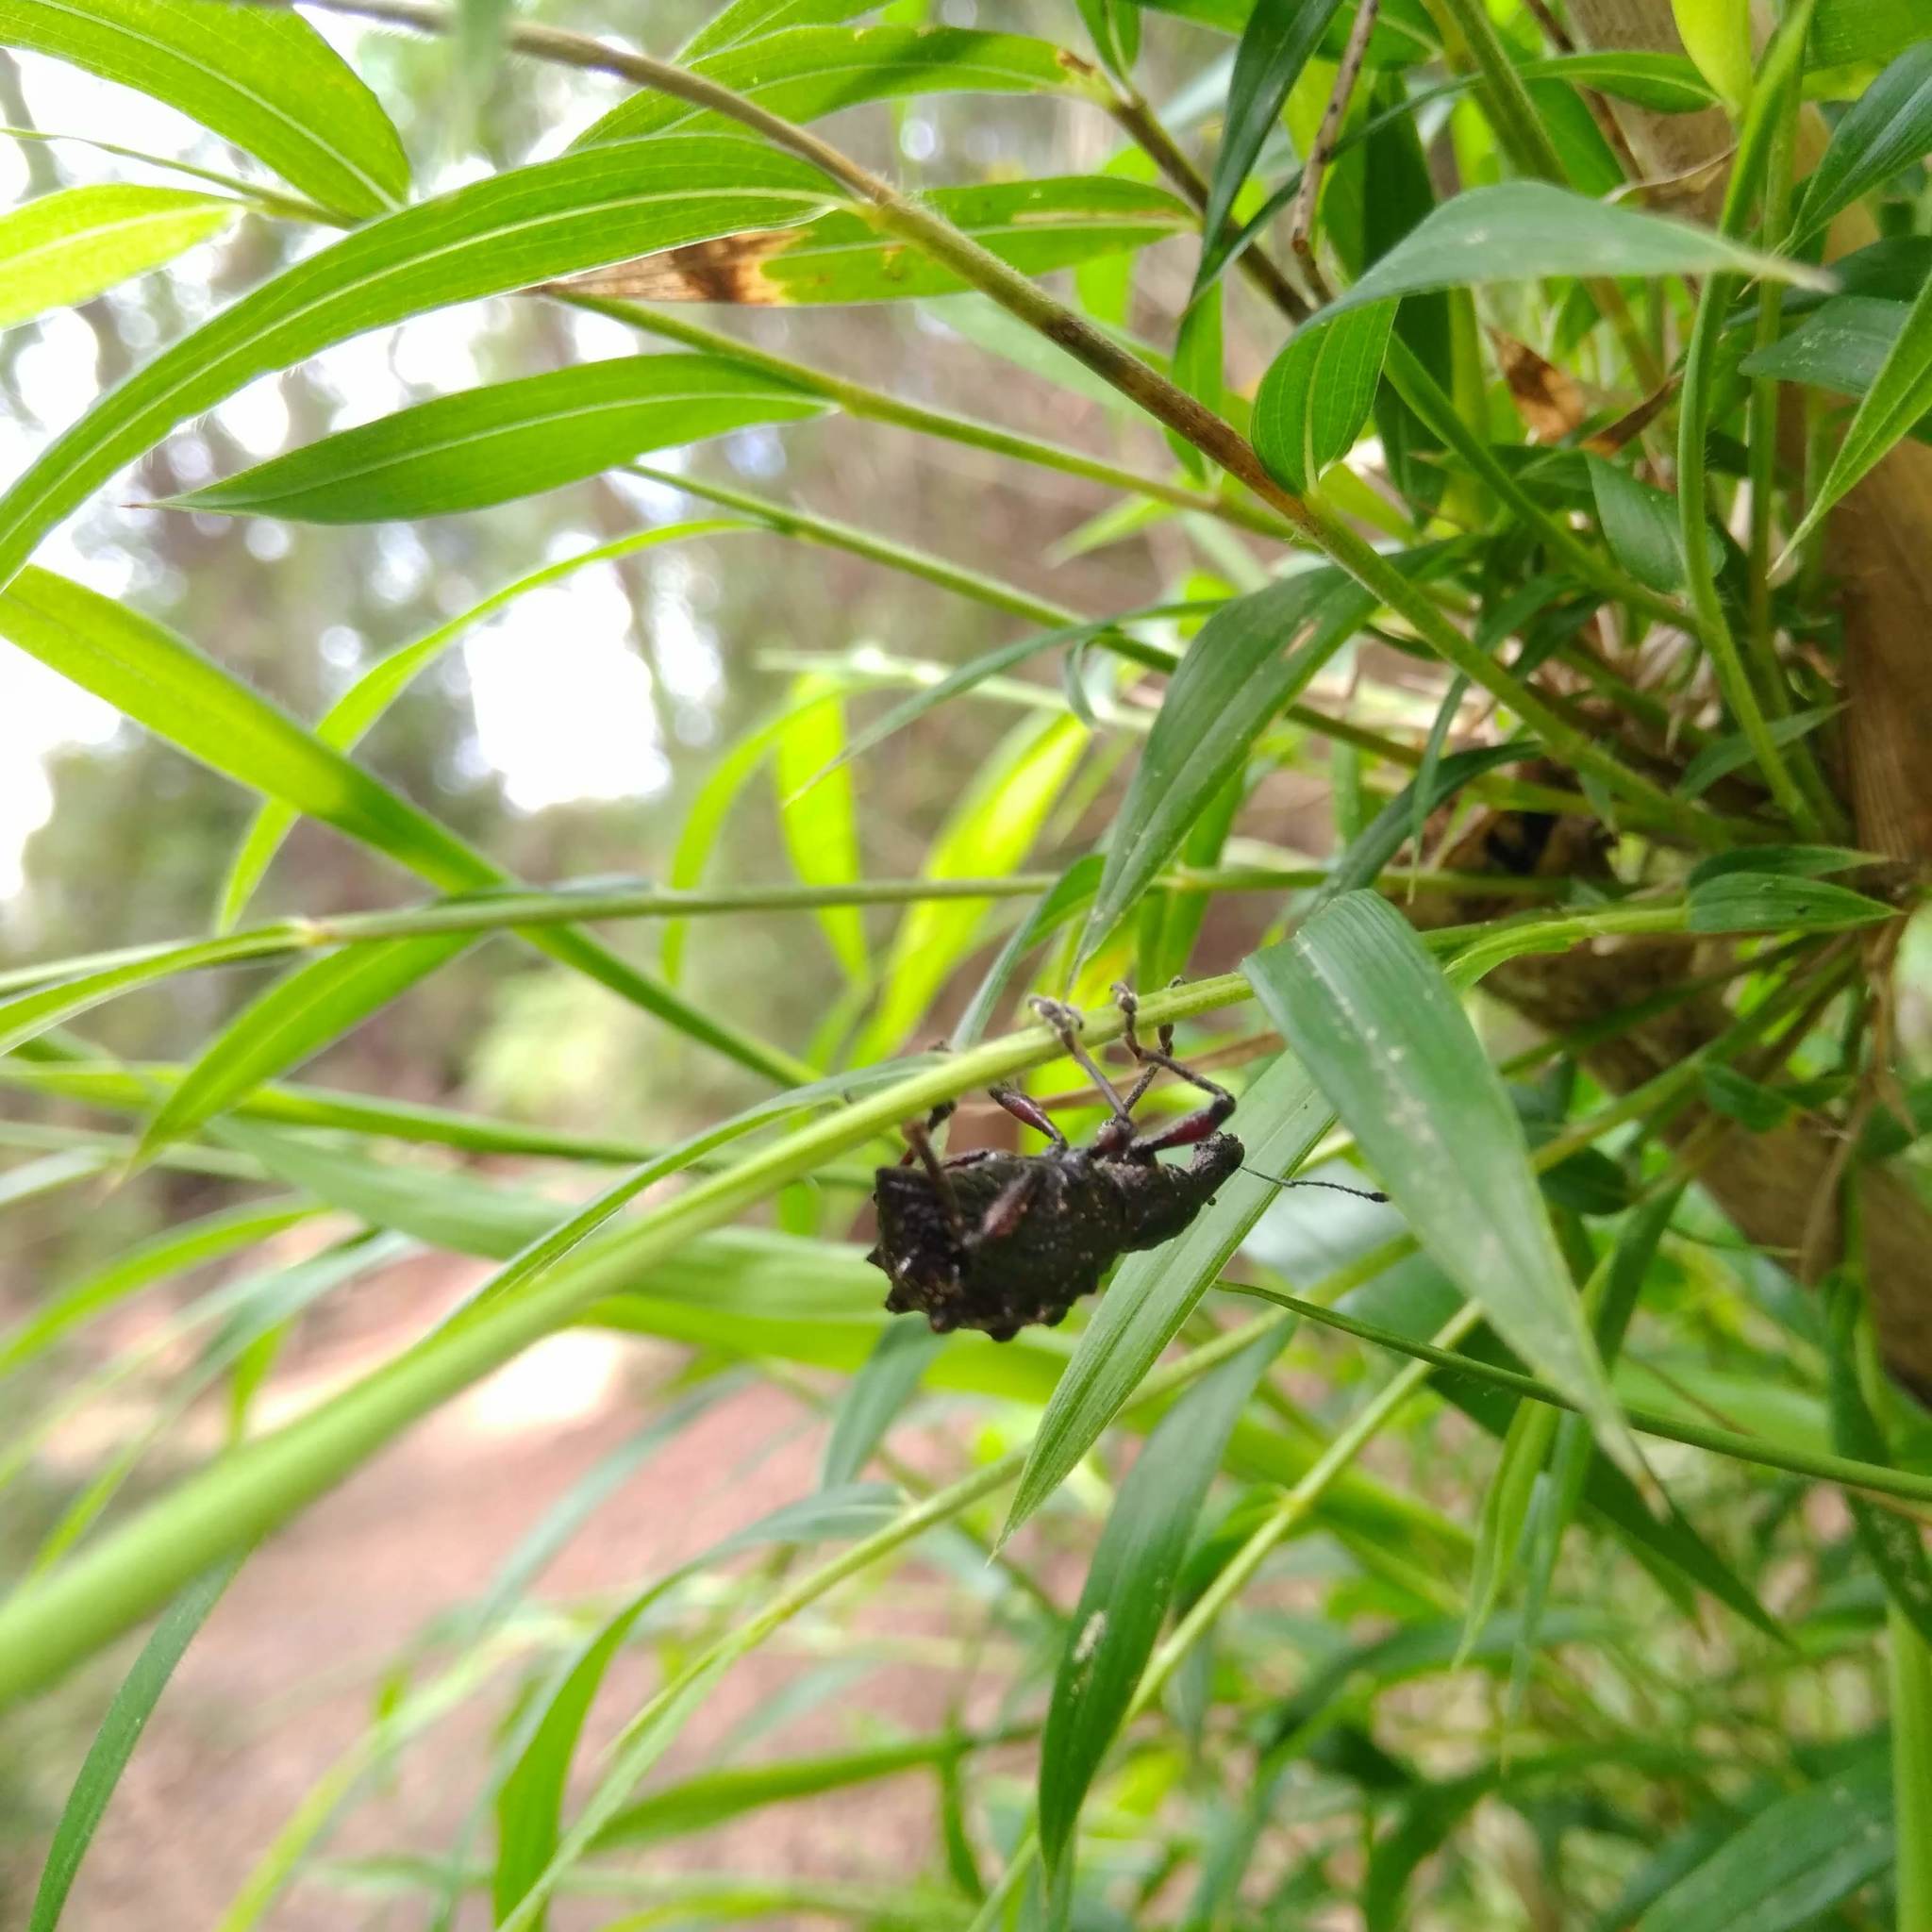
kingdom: Animalia
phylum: Arthropoda
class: Insecta
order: Coleoptera
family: Curculionidae
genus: Megalometis
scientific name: Megalometis spiniferus
